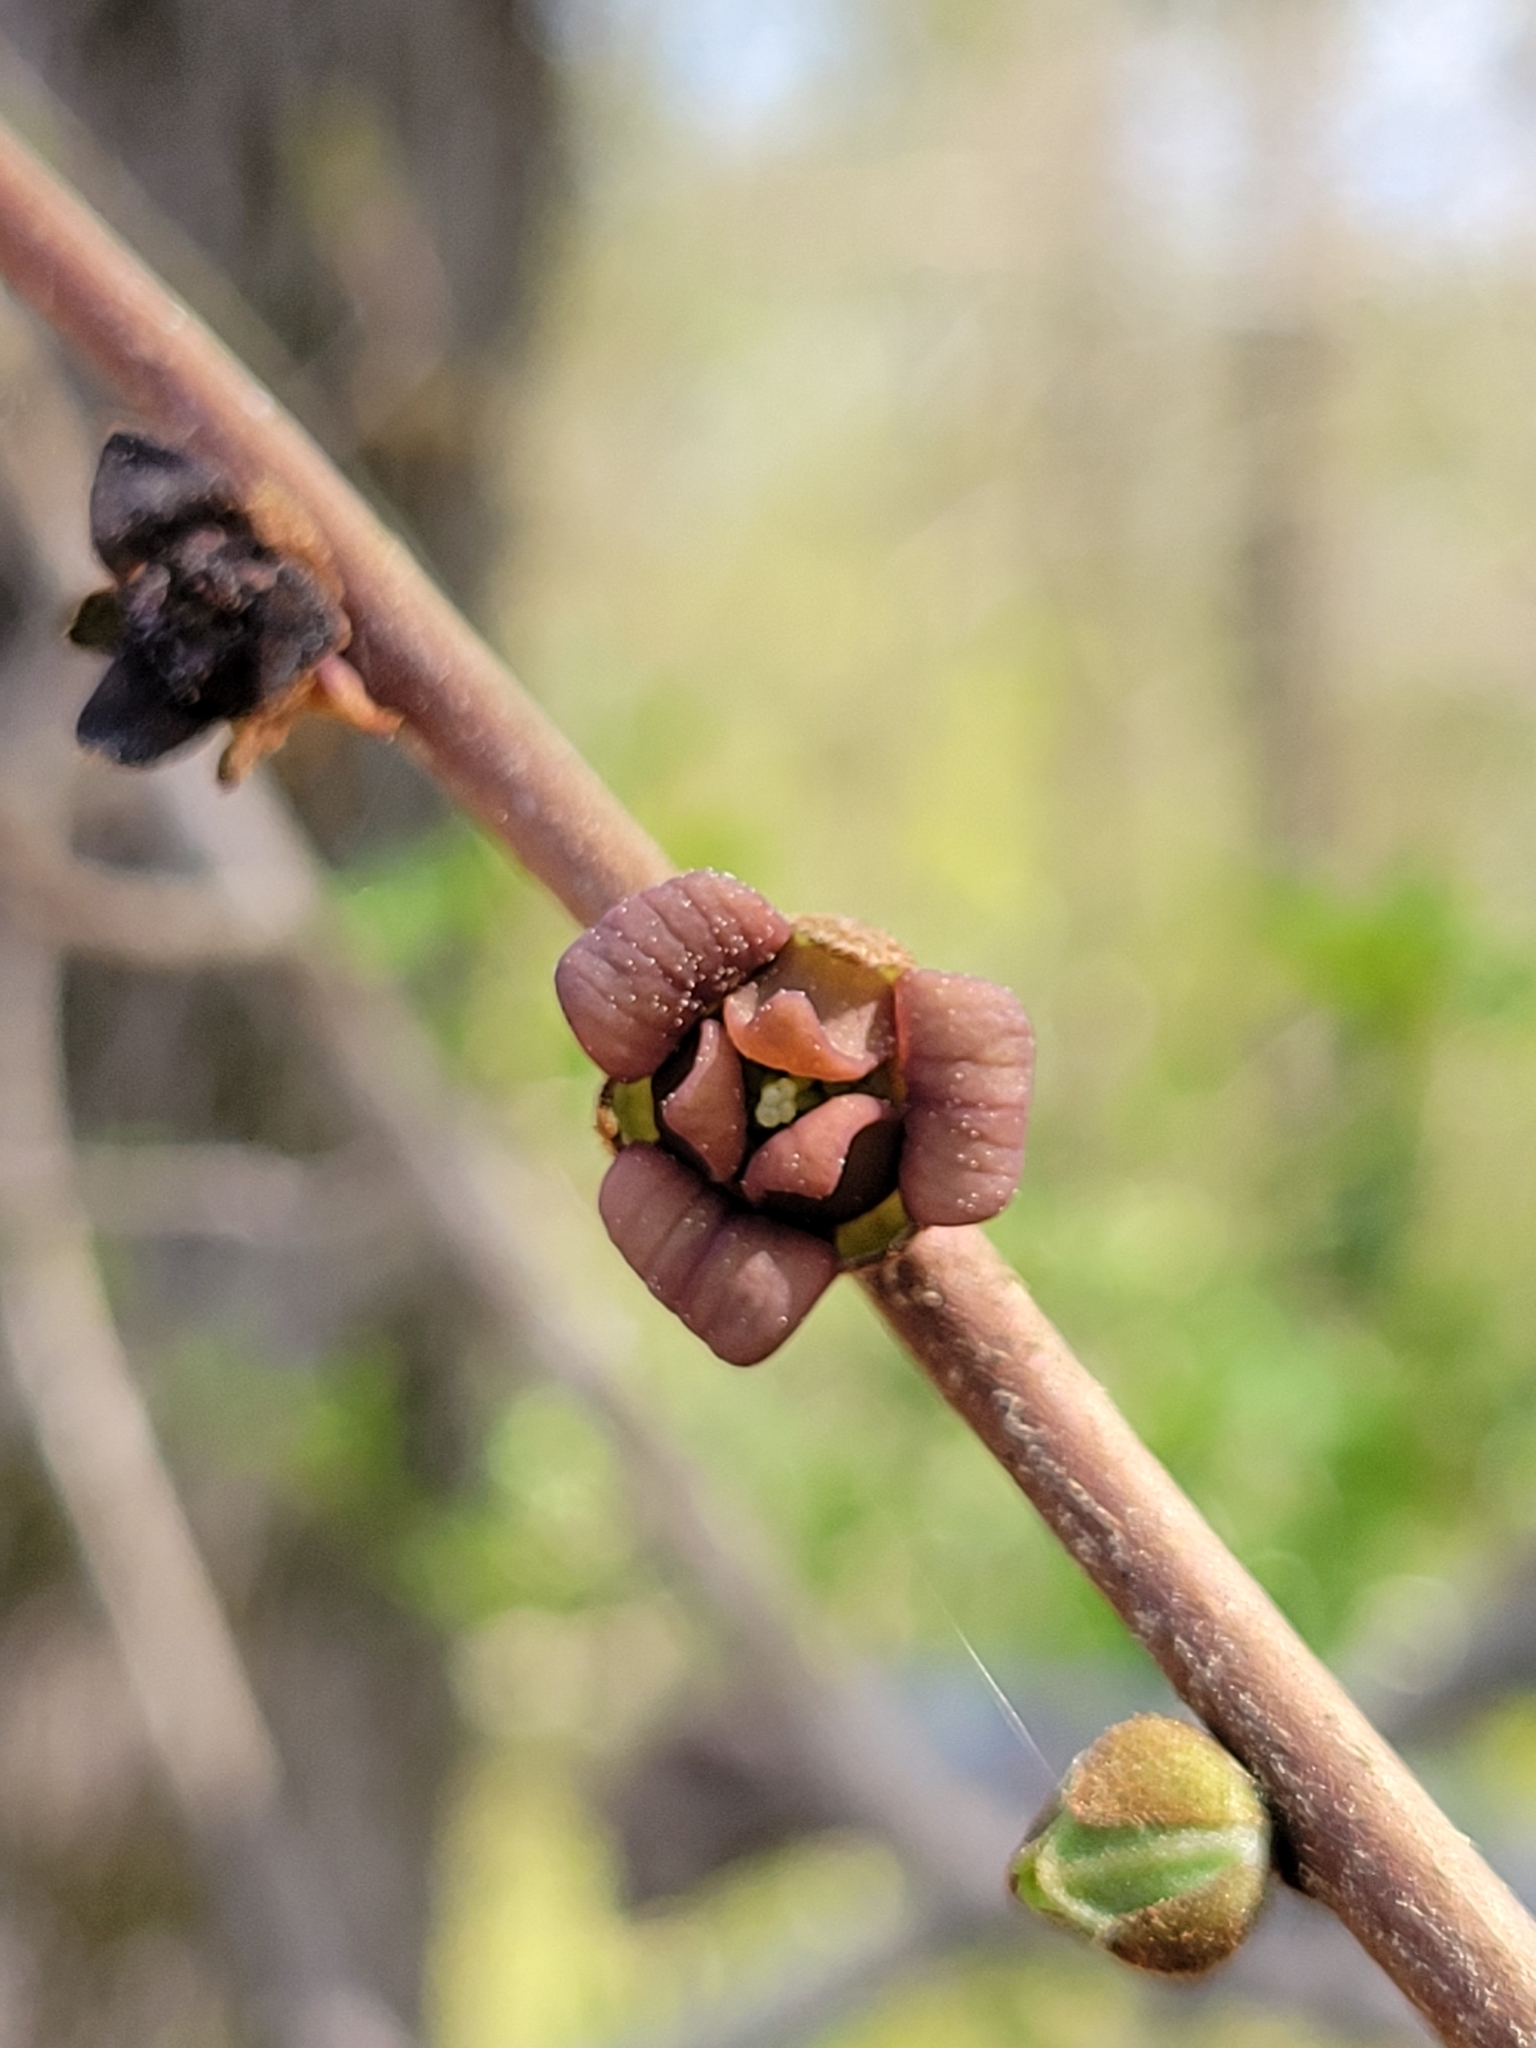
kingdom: Plantae
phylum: Tracheophyta
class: Magnoliopsida
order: Magnoliales
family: Annonaceae
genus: Asimina
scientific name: Asimina parviflora
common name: Dwarf pawpaw
